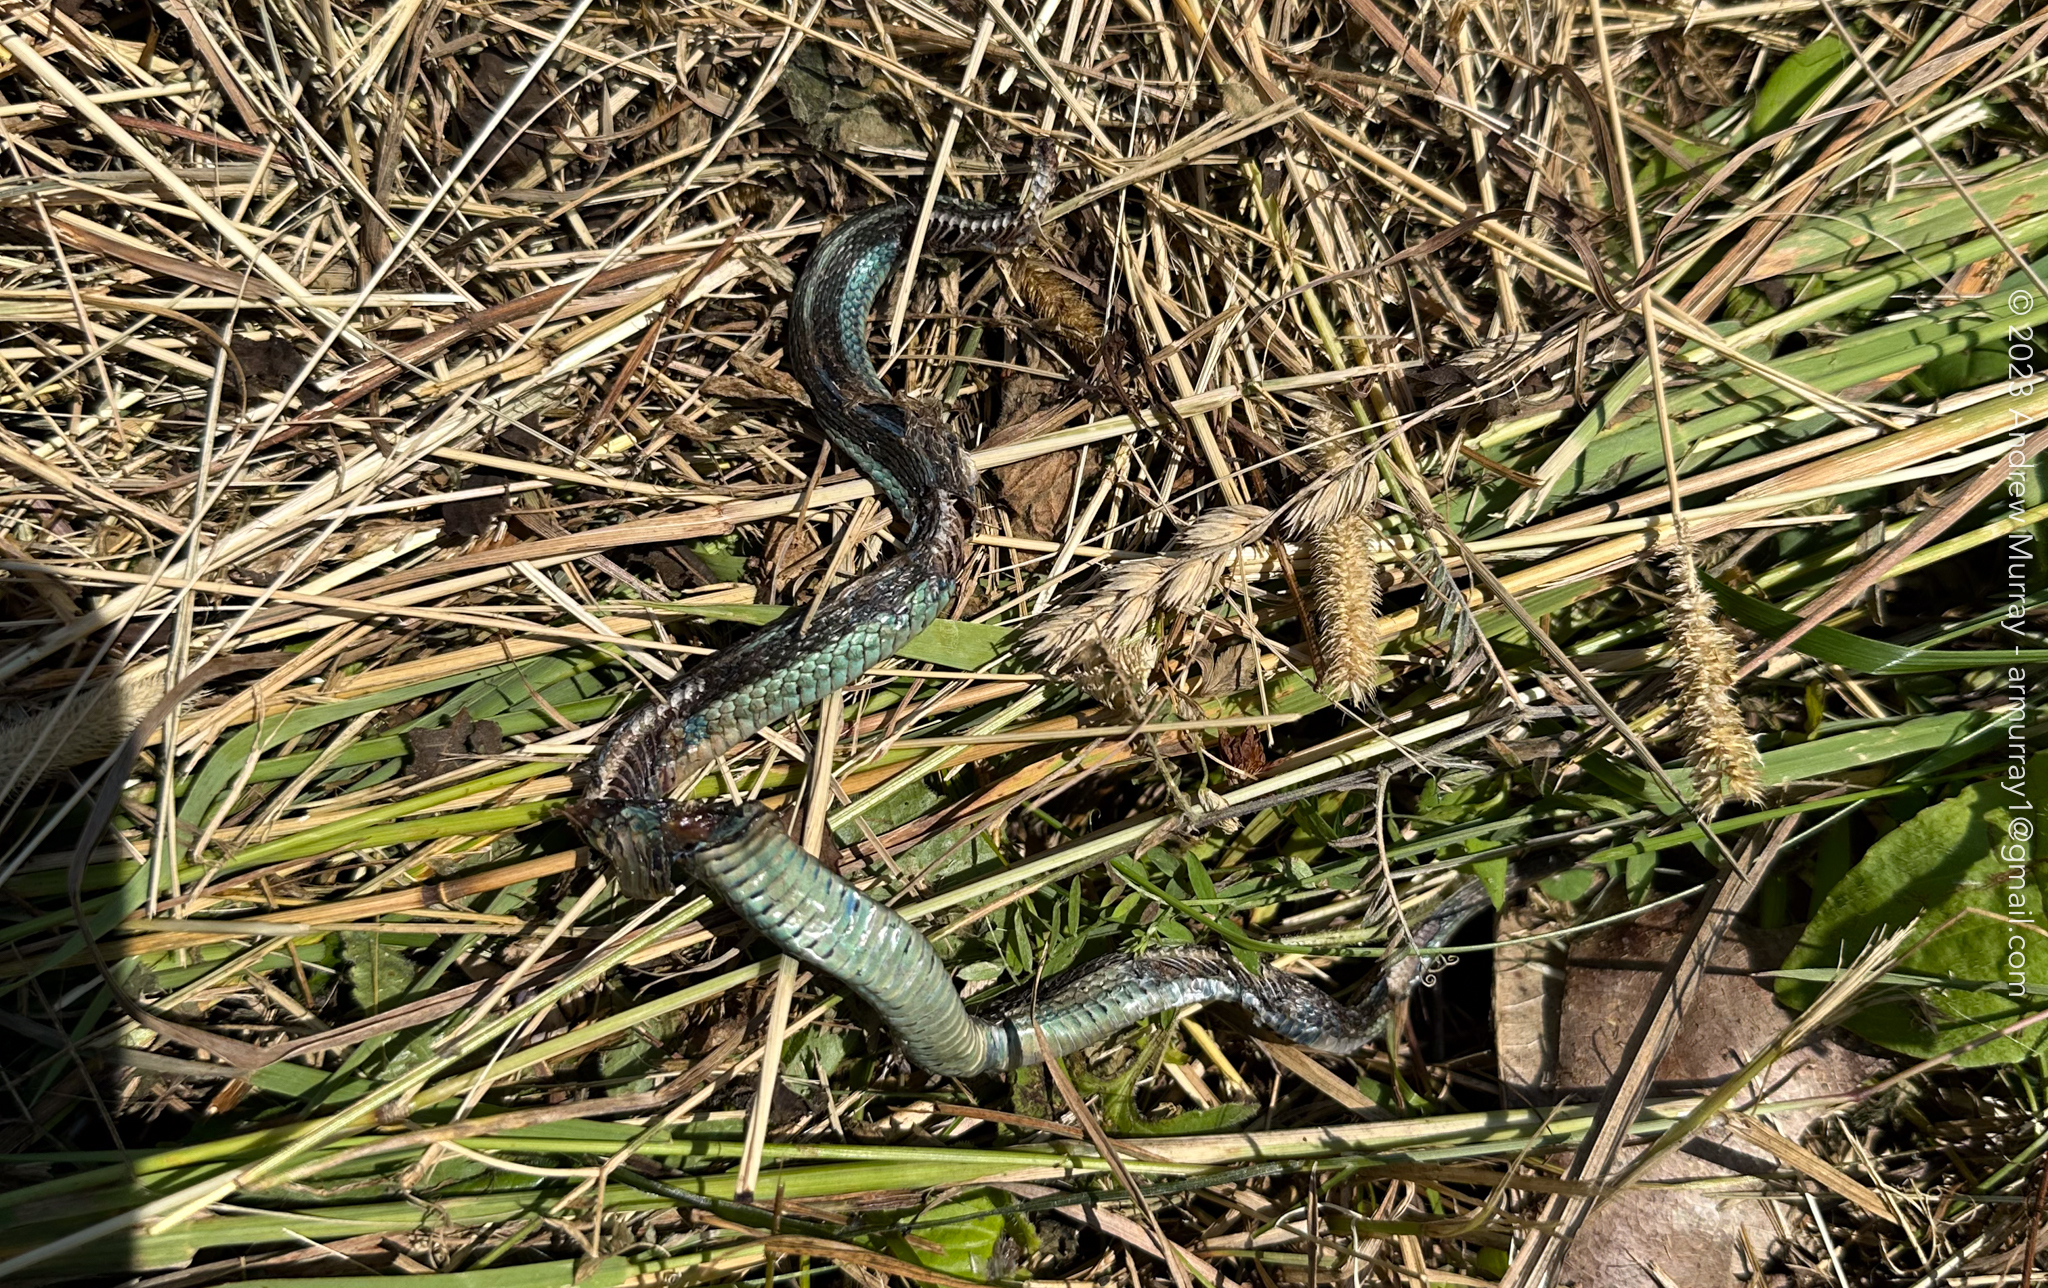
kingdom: Animalia
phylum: Chordata
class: Squamata
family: Colubridae
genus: Thamnophis
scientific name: Thamnophis sirtalis
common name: Common garter snake
